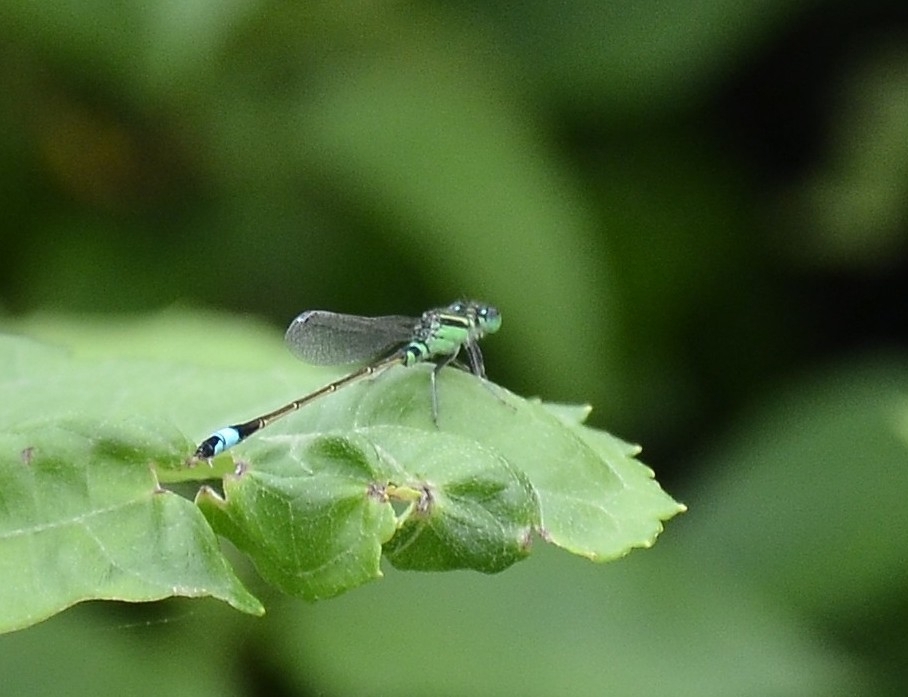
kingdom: Animalia
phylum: Arthropoda
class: Insecta
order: Odonata
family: Coenagrionidae
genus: Ischnura
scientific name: Ischnura senegalensis
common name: Tropical bluetail
